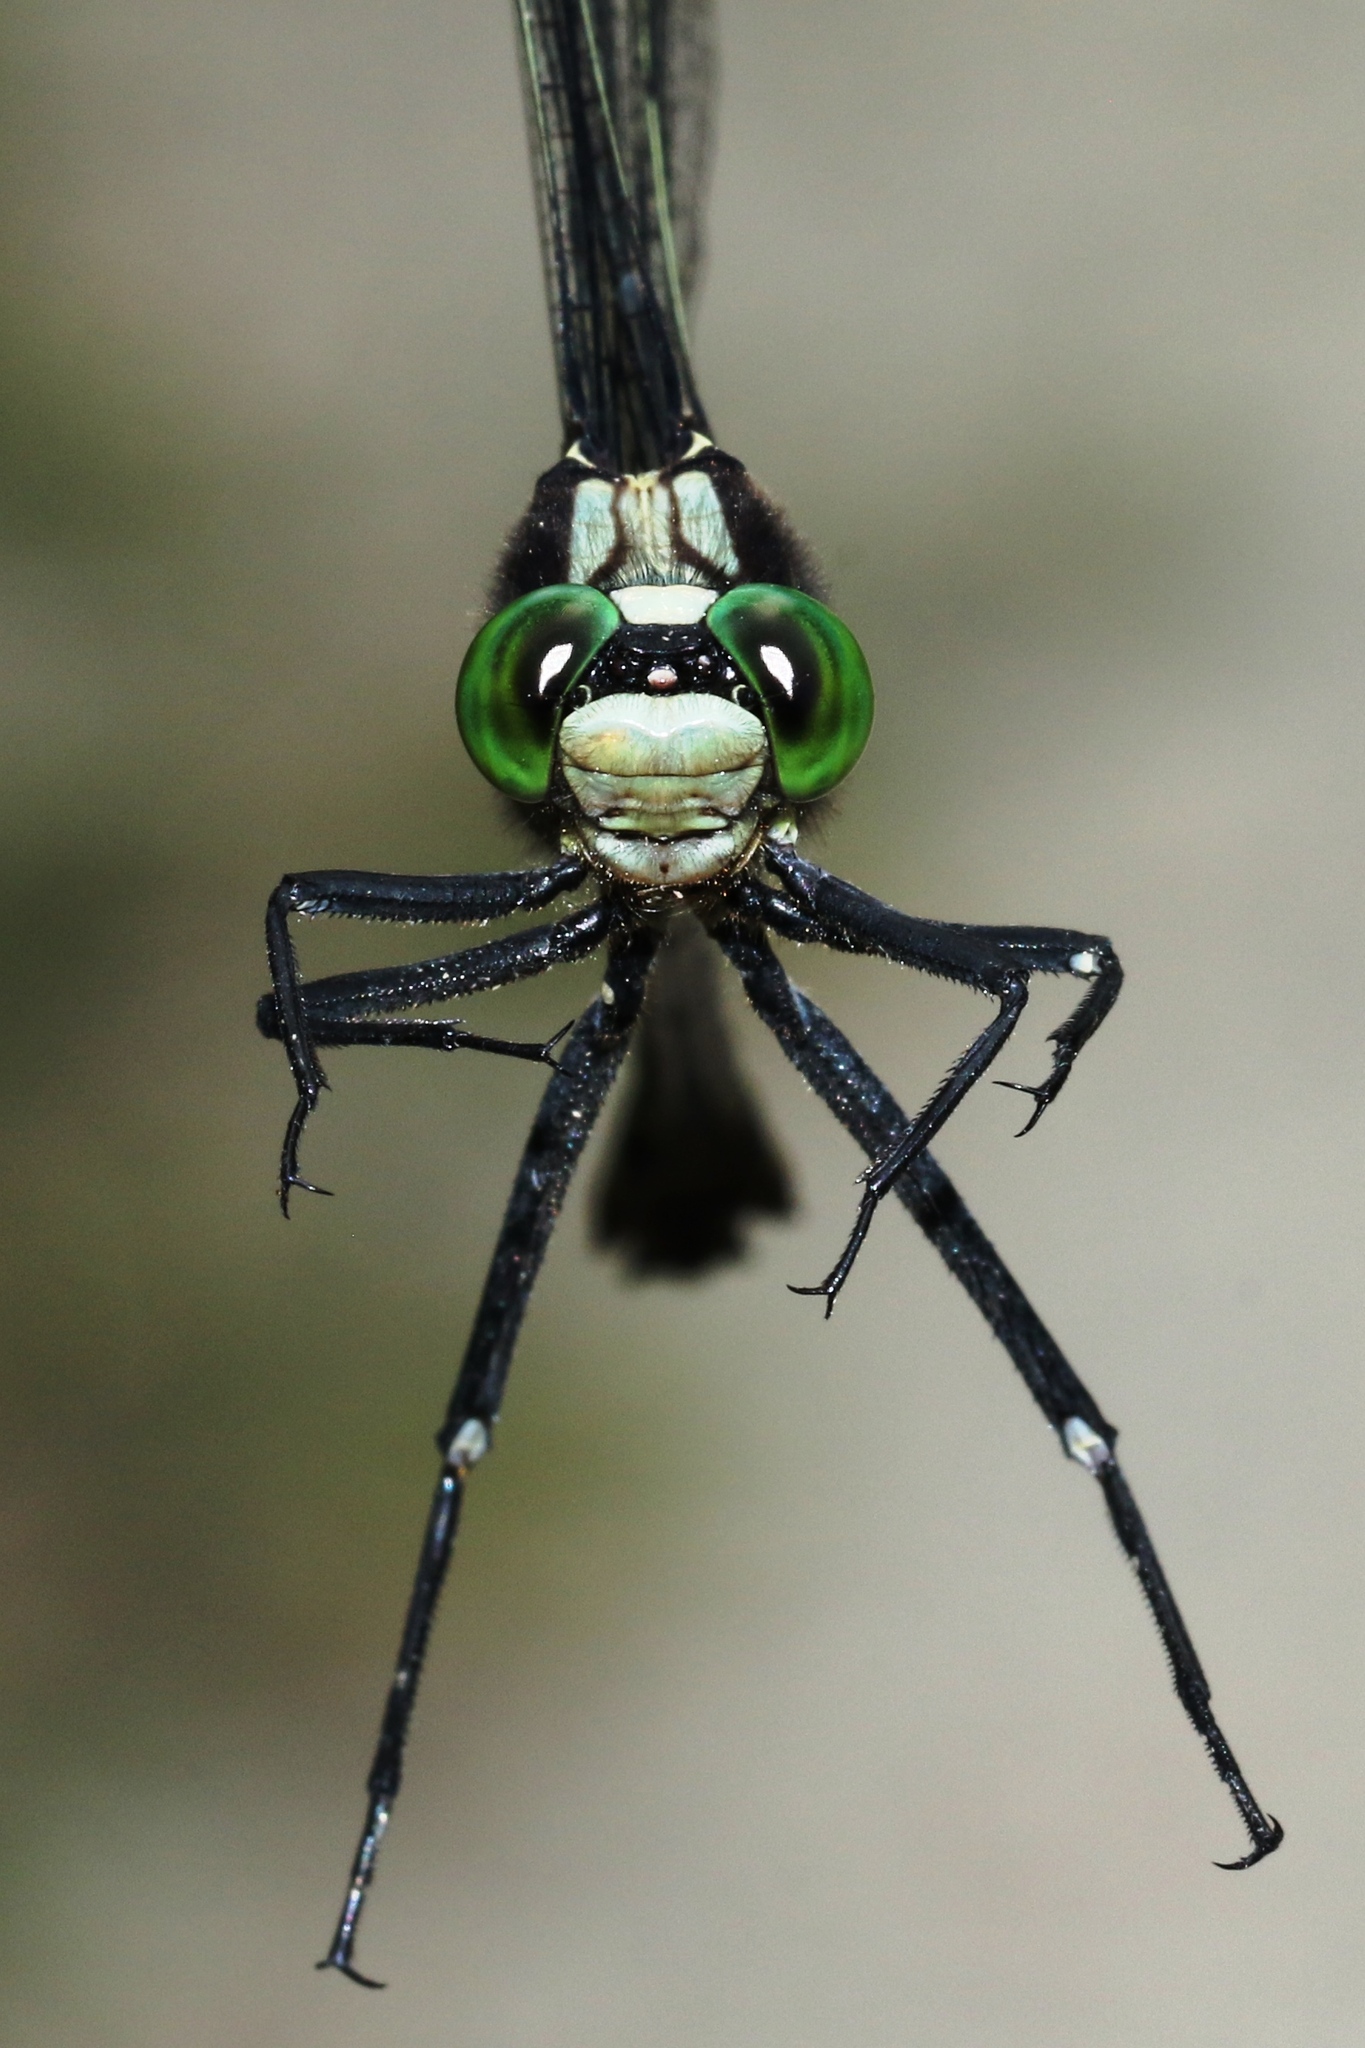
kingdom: Animalia
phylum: Arthropoda
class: Insecta
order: Odonata
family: Gomphidae
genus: Dromogomphus
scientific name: Dromogomphus spinosus
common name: Black-shouldered spinyleg
